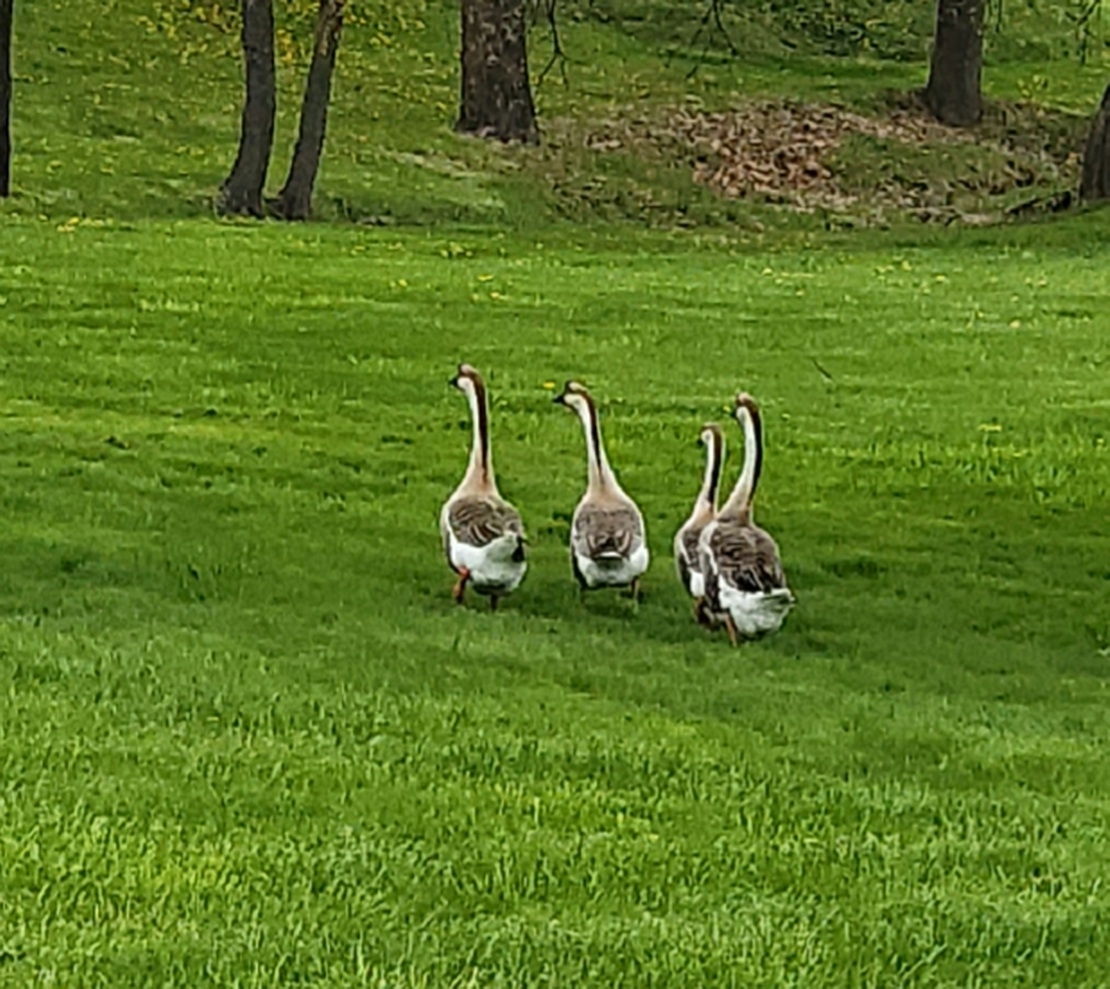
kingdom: Animalia
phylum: Chordata
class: Aves
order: Anseriformes
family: Anatidae
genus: Anser
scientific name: Anser cygnoides
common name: Swan goose
